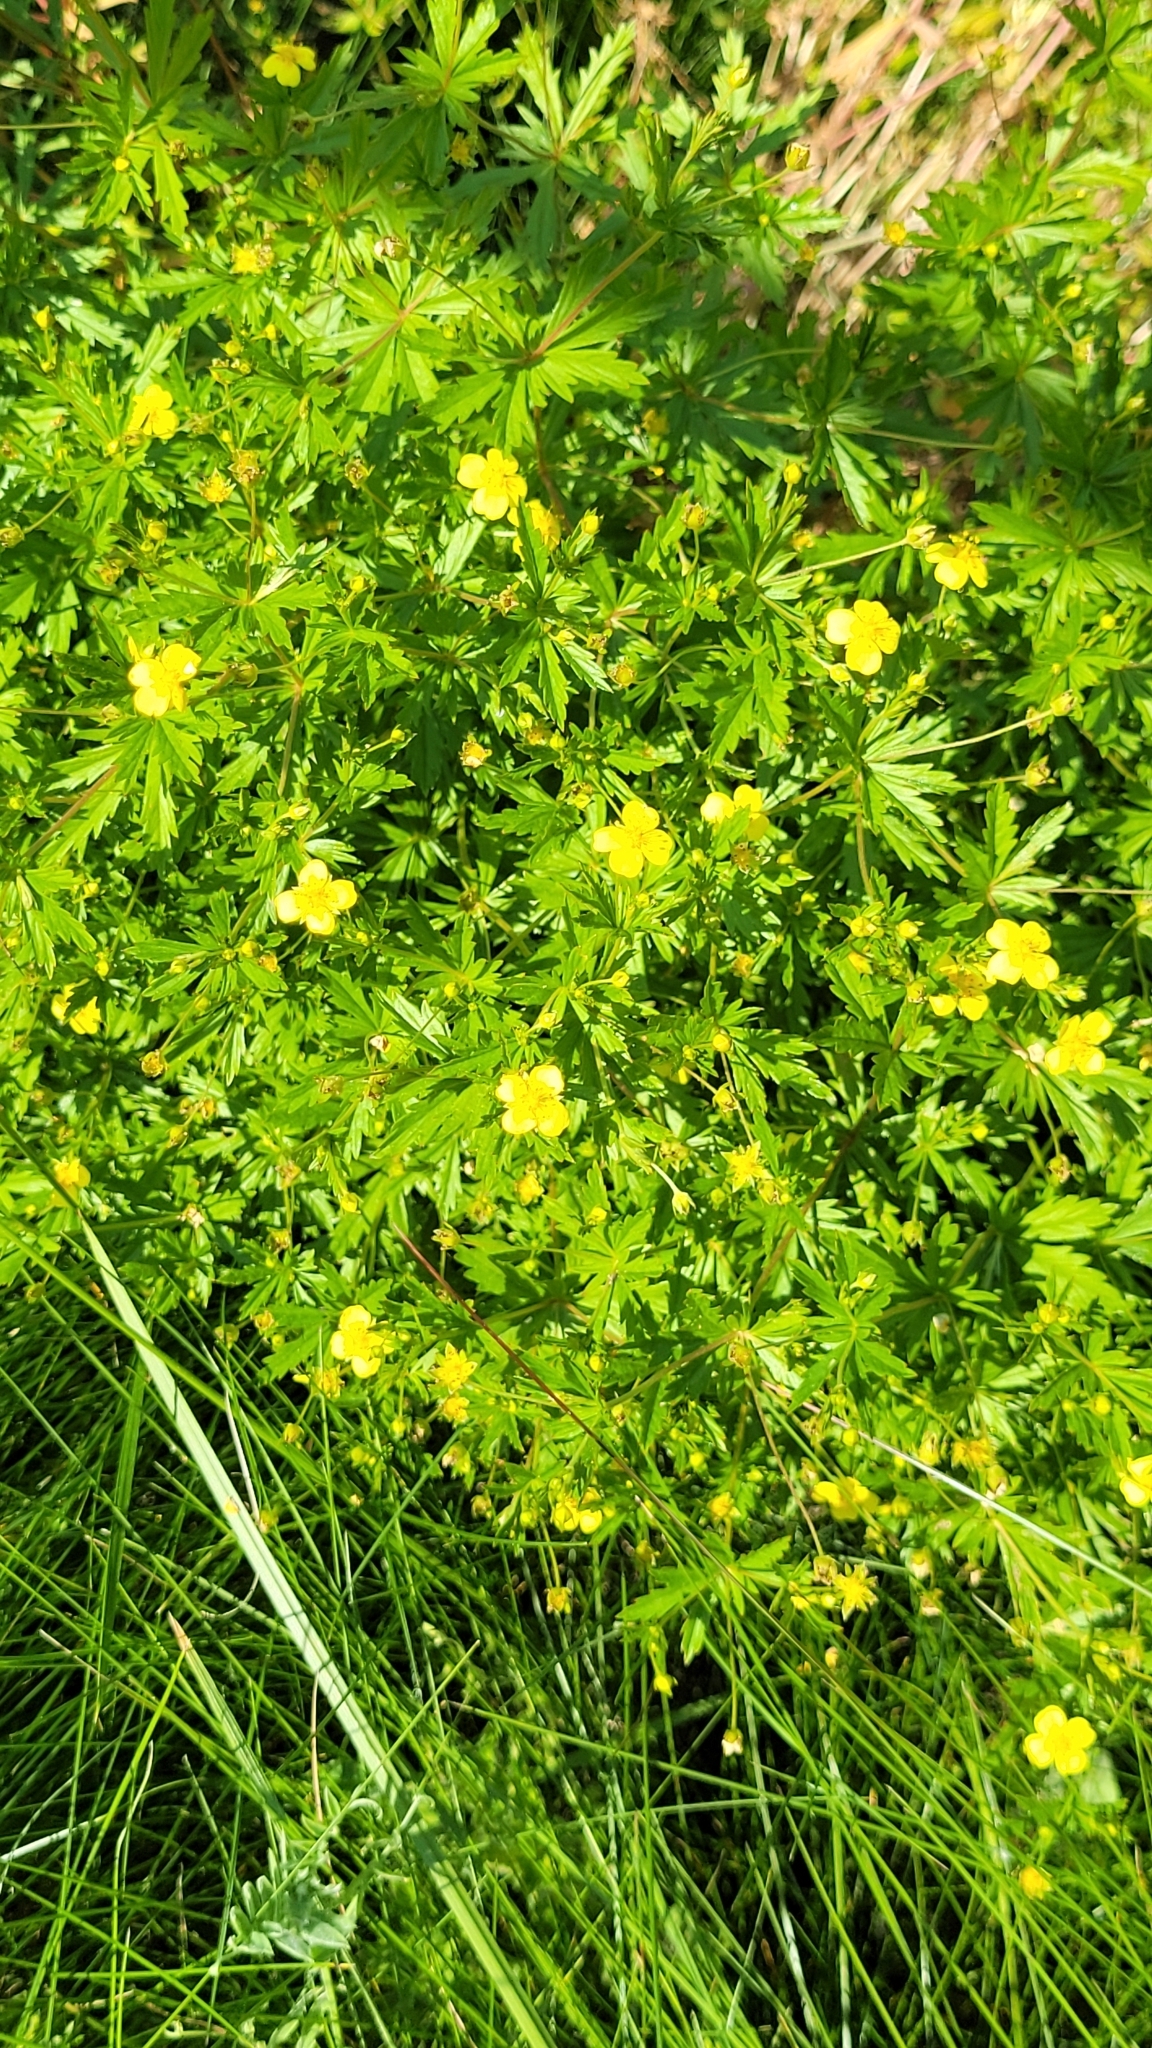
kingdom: Plantae
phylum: Tracheophyta
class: Magnoliopsida
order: Rosales
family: Rosaceae
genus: Potentilla
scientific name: Potentilla erecta
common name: Tormentil
